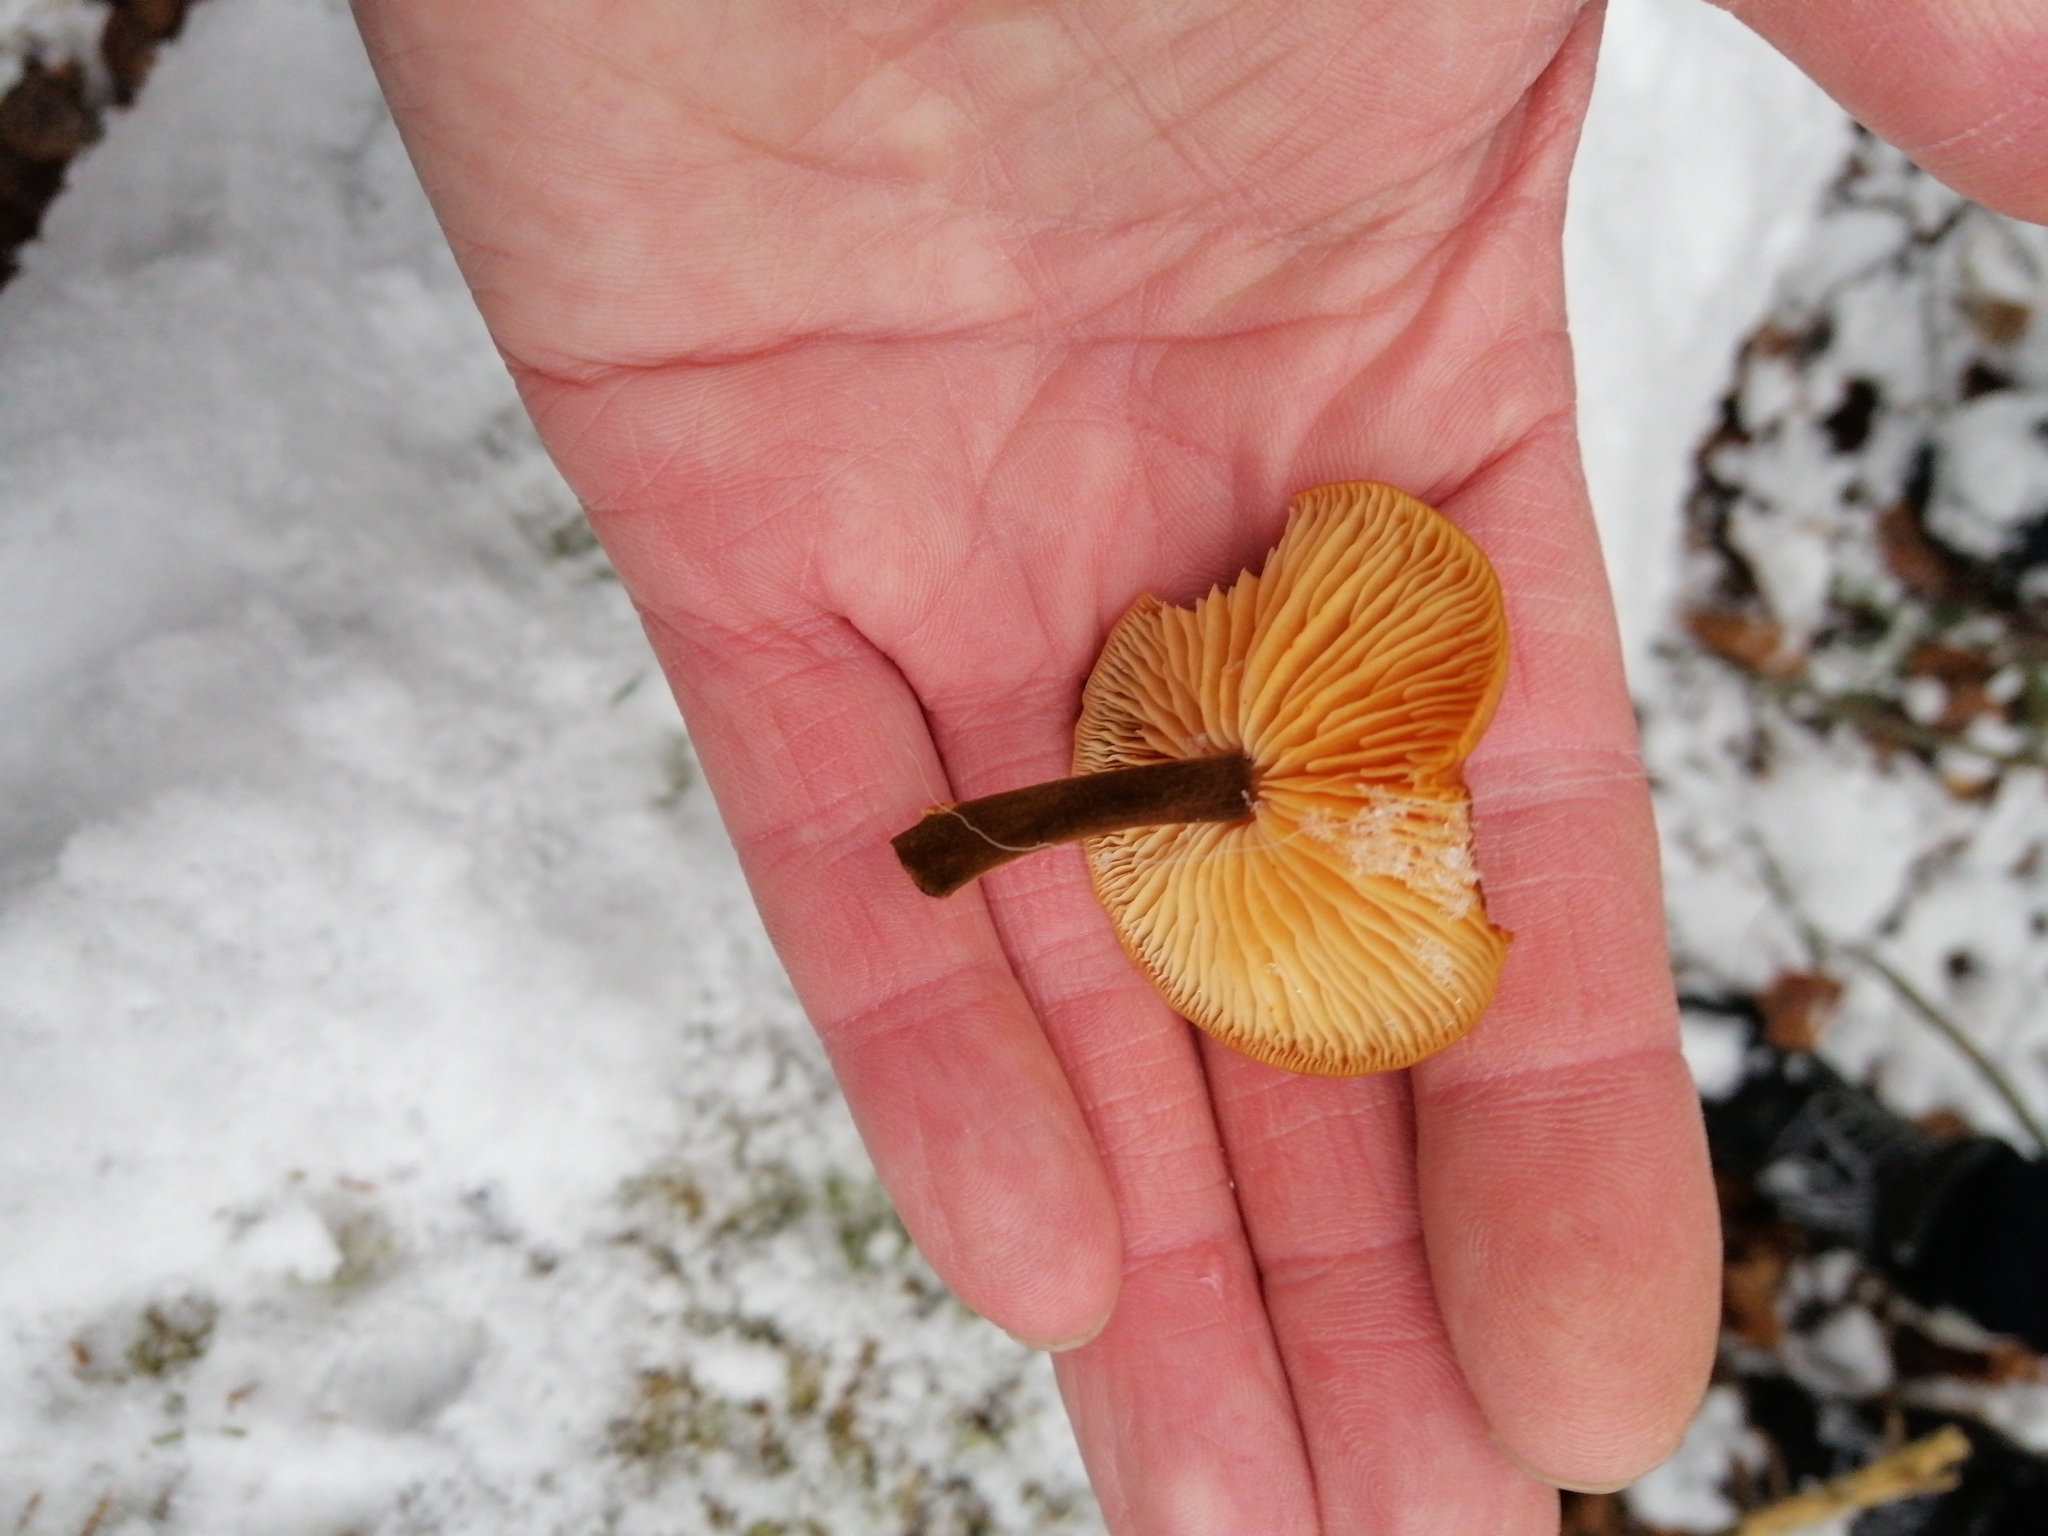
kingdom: Fungi
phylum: Basidiomycota
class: Agaricomycetes
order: Agaricales
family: Physalacriaceae
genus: Flammulina
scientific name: Flammulina
